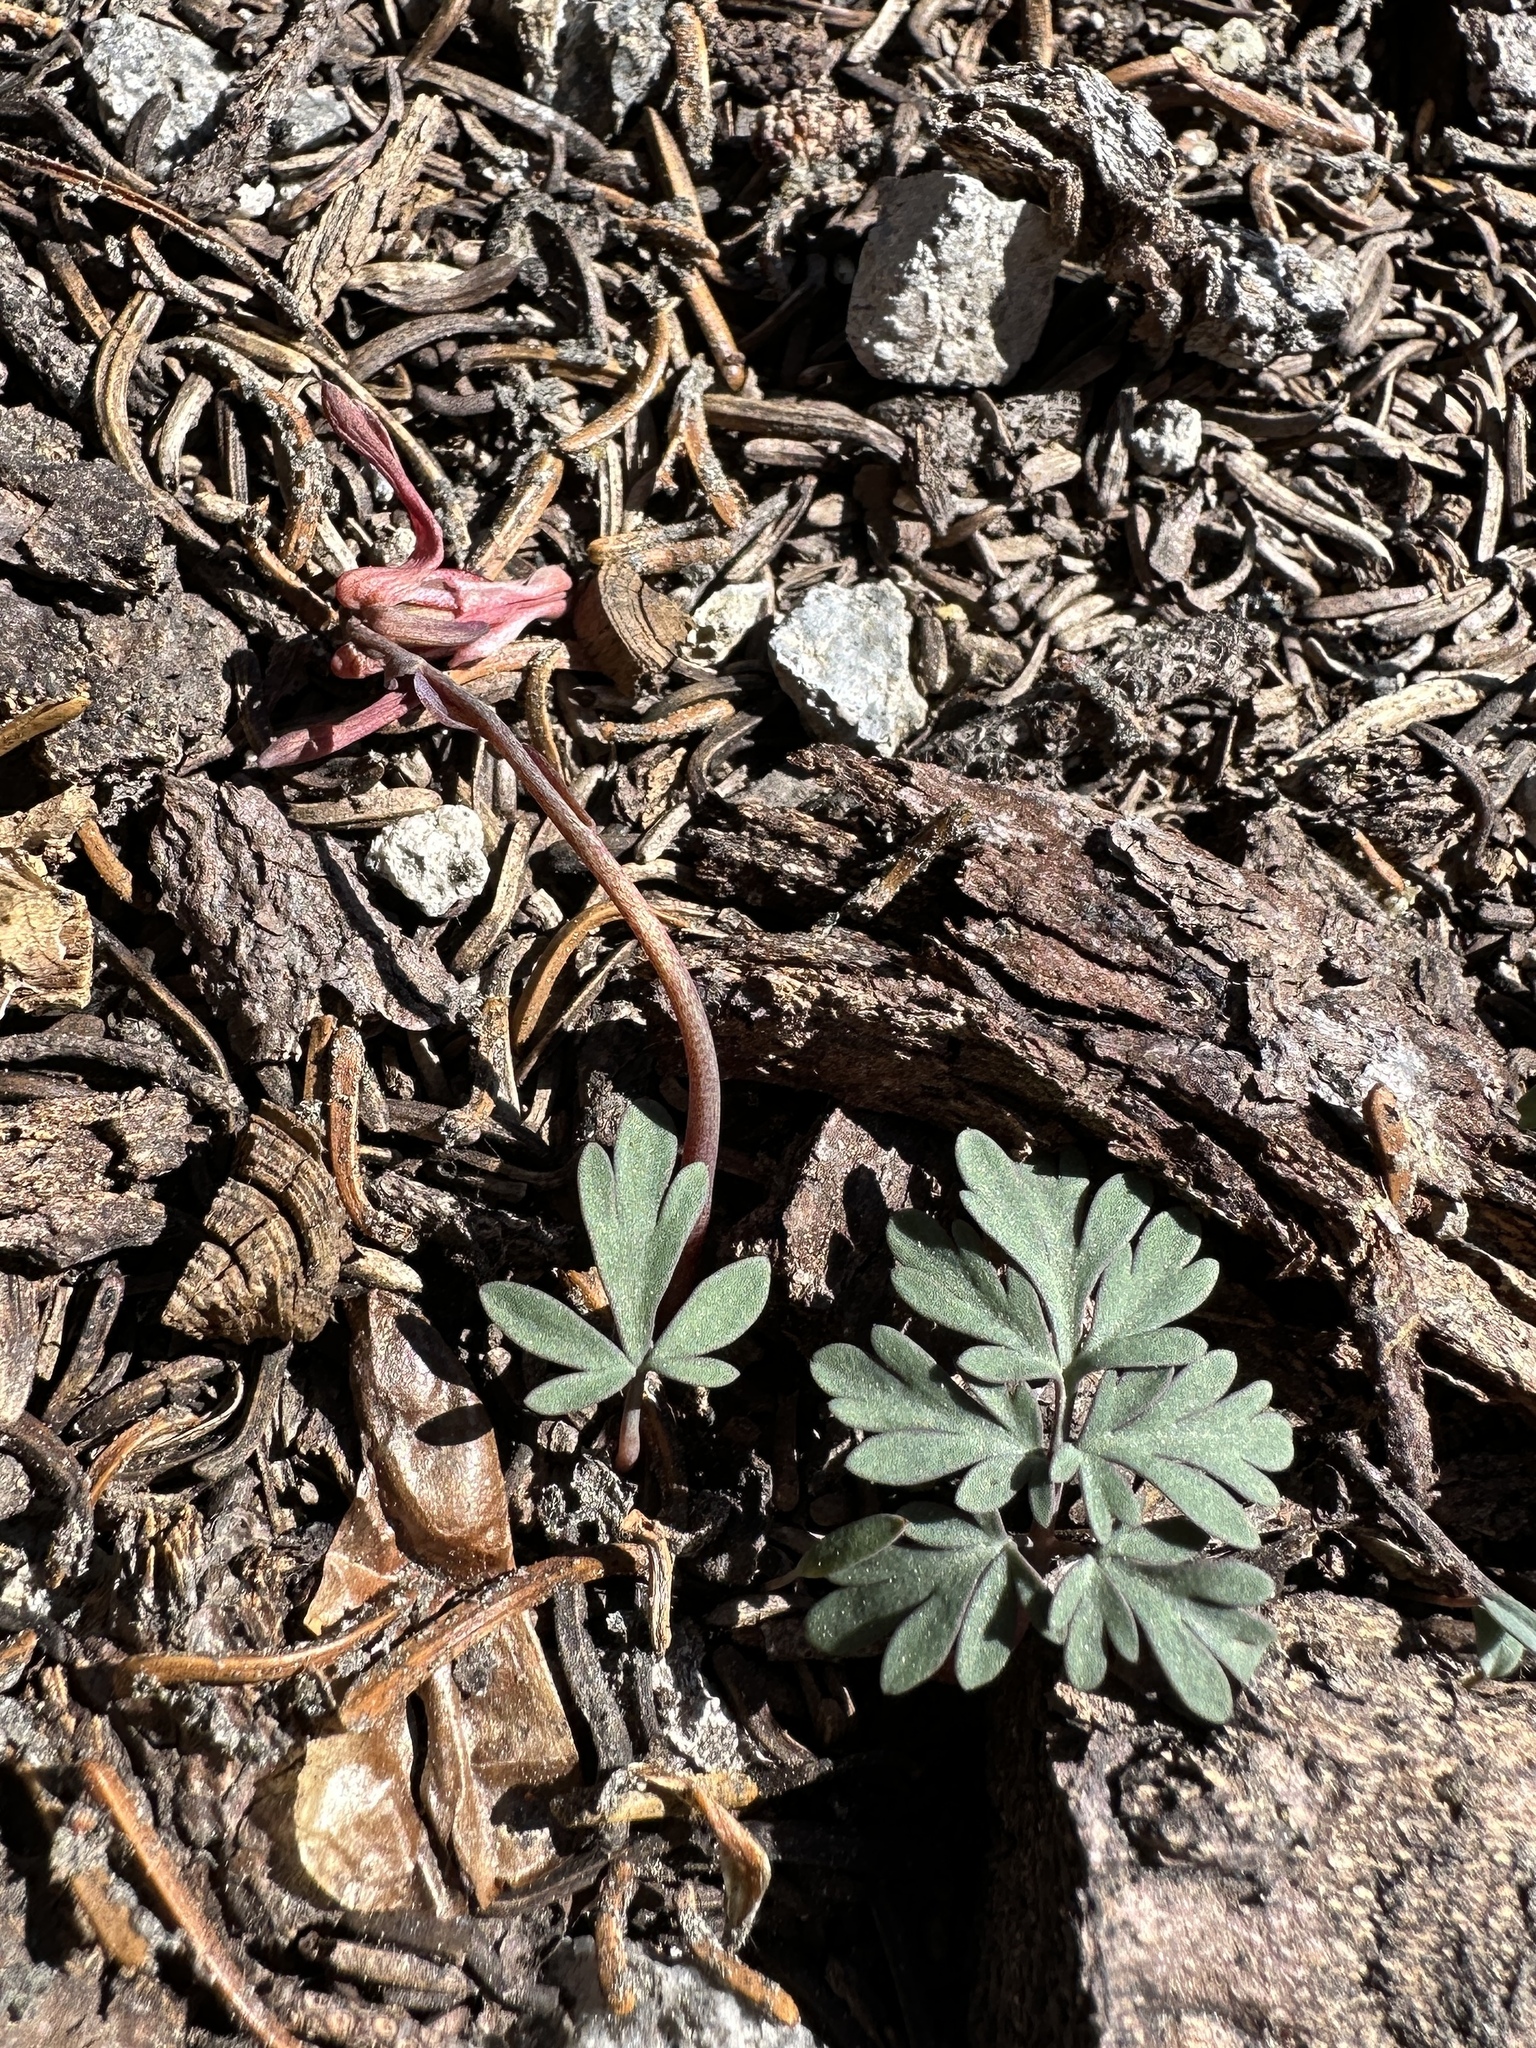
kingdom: Plantae
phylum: Tracheophyta
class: Magnoliopsida
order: Ranunculales
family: Papaveraceae
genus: Dicentra
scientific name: Dicentra uniflora
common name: Steer's-head
